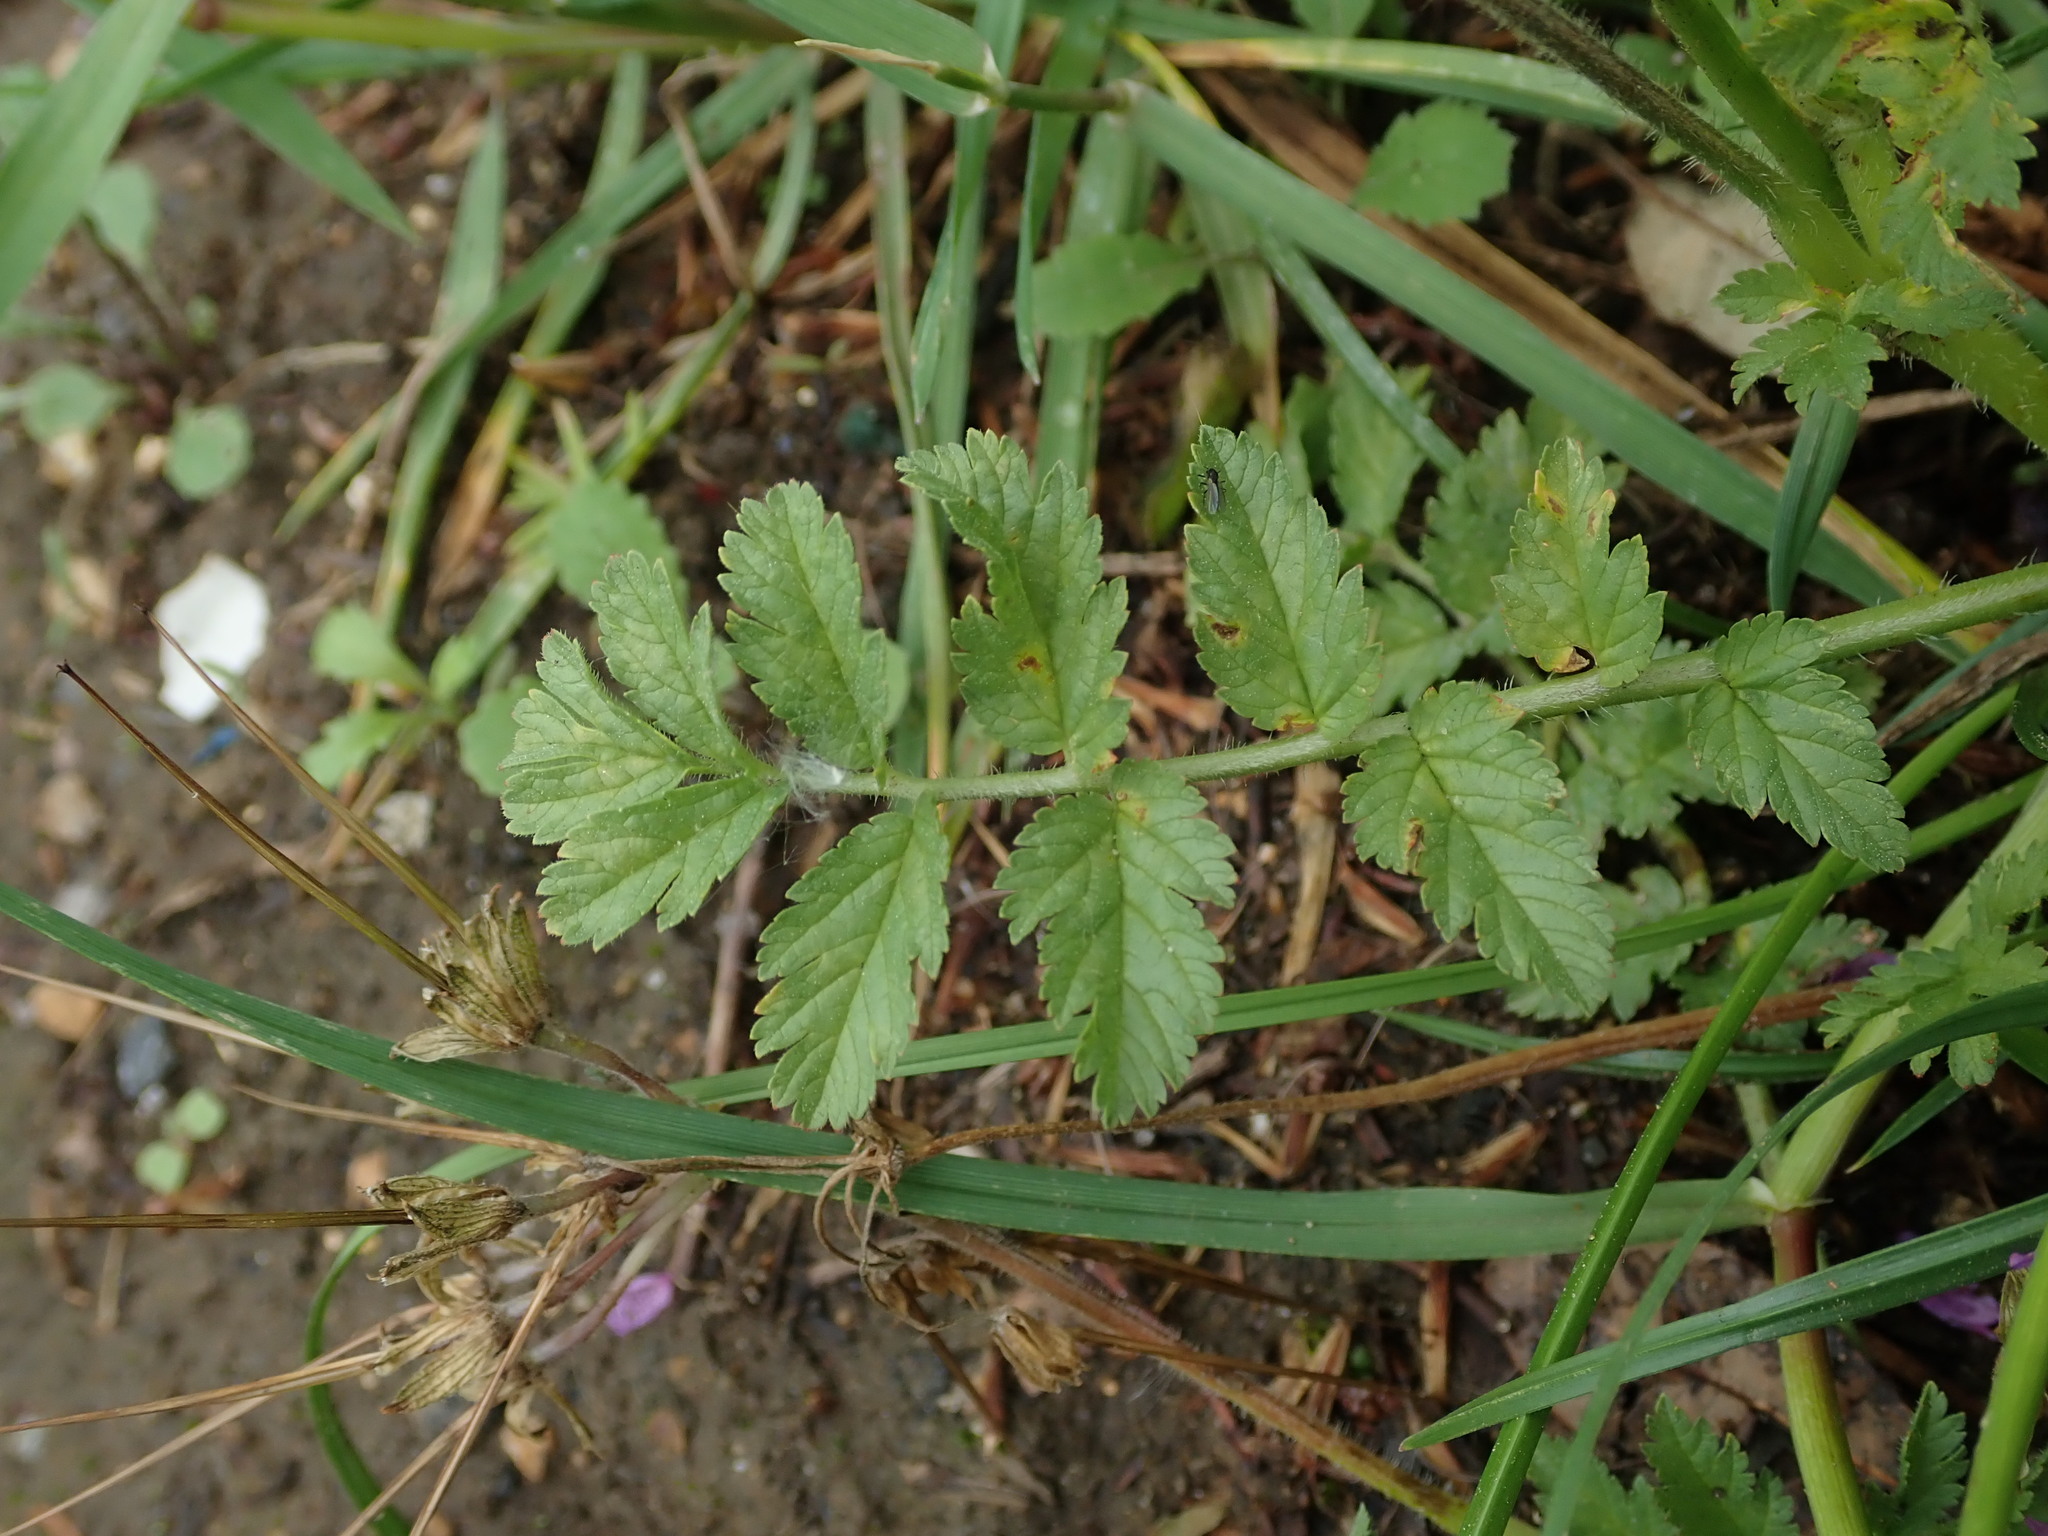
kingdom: Plantae
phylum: Tracheophyta
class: Magnoliopsida
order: Geraniales
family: Geraniaceae
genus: Erodium
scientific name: Erodium moschatum
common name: Musk stork's-bill
